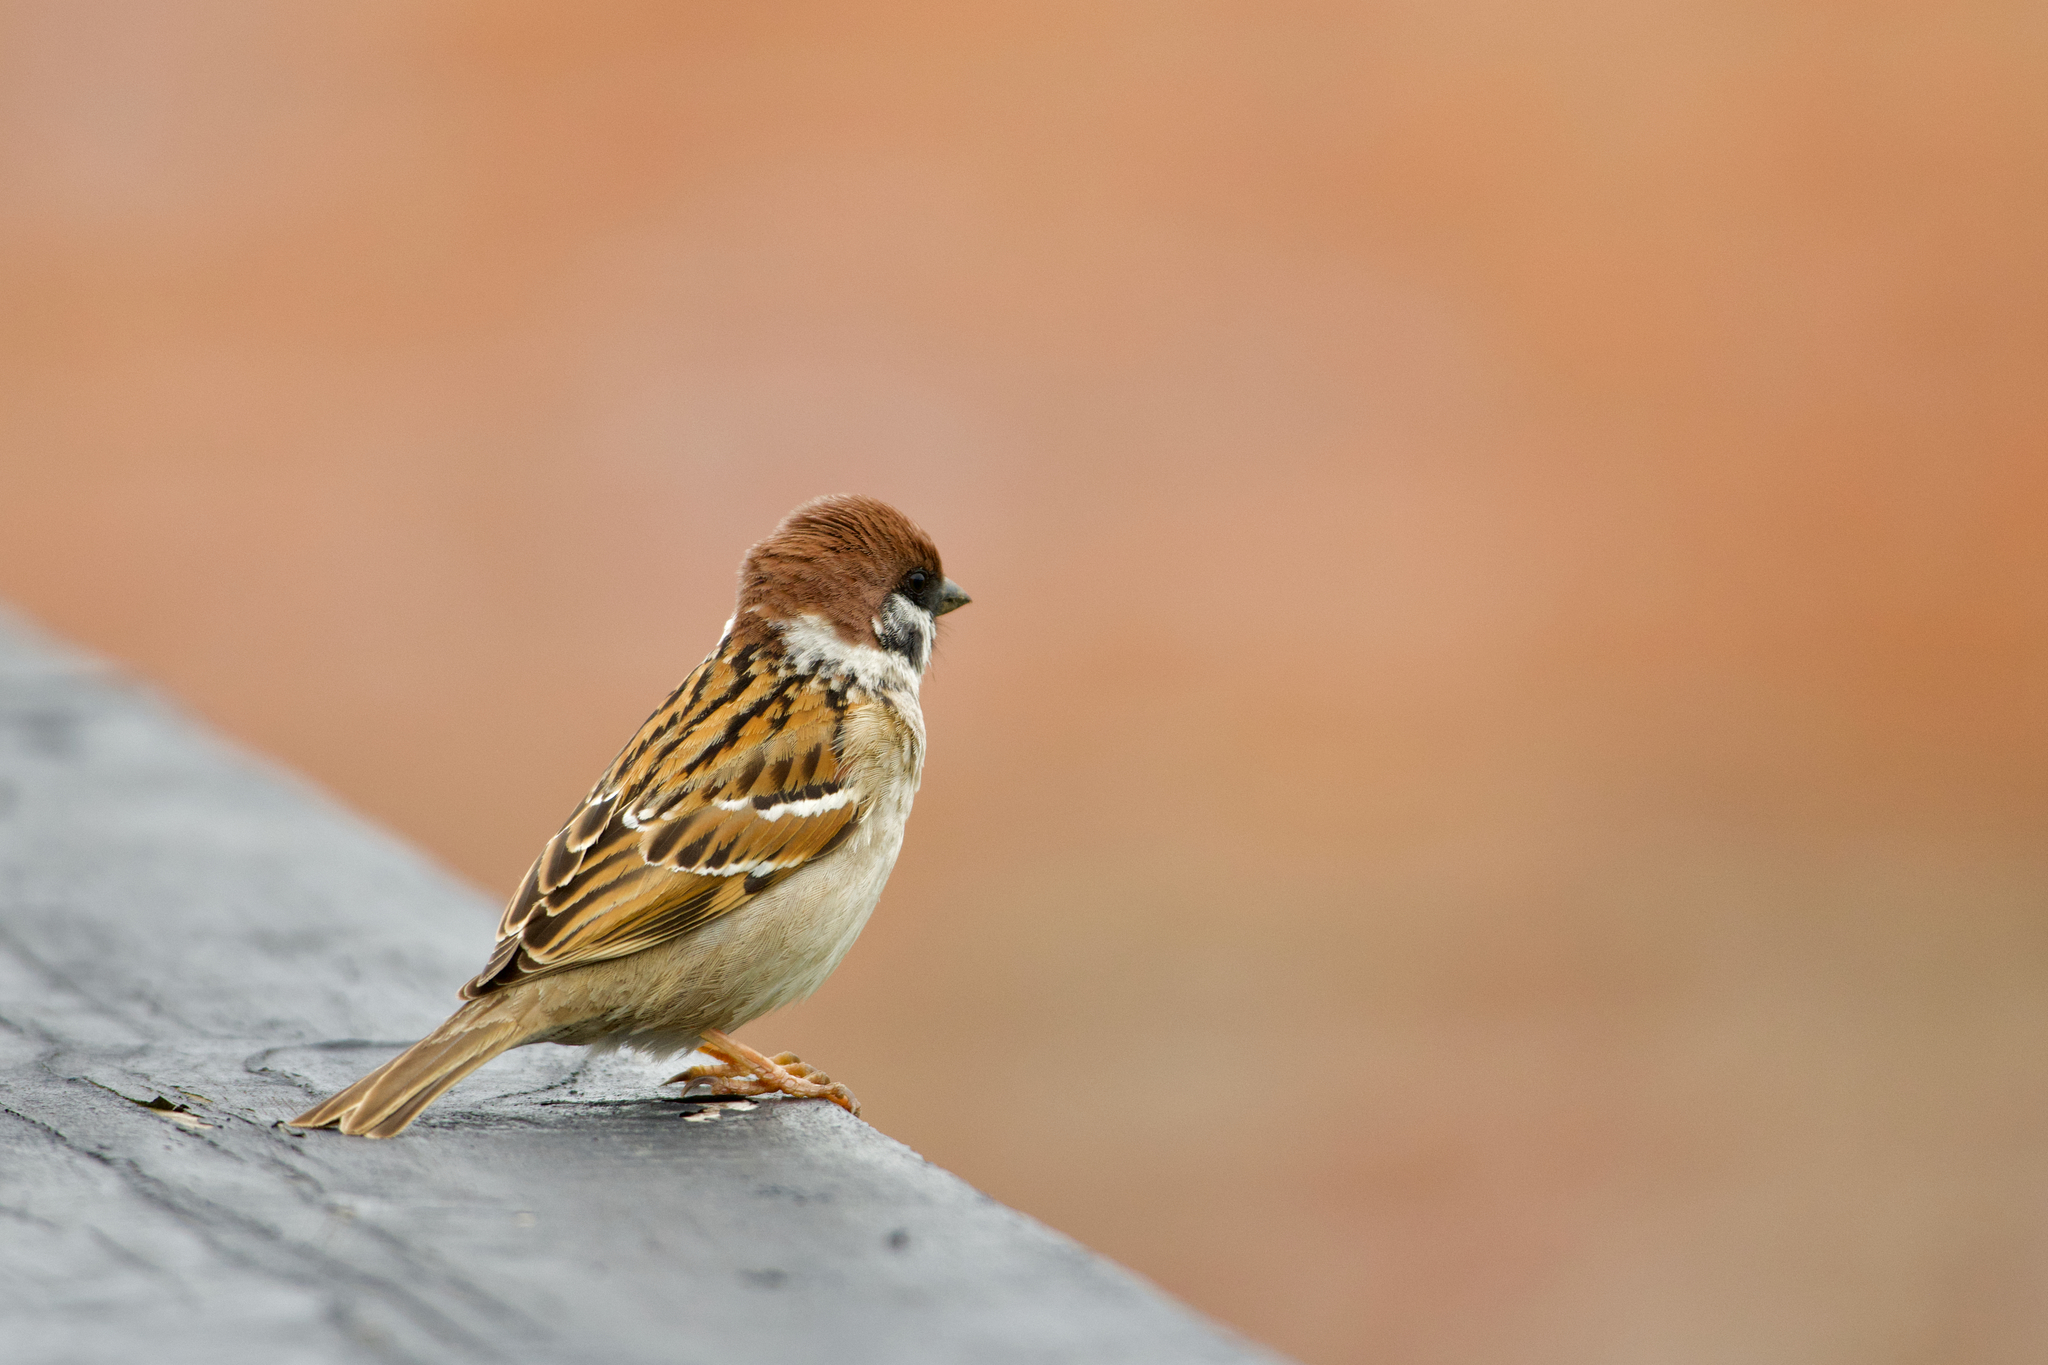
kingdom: Animalia
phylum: Chordata
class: Aves
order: Passeriformes
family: Passeridae
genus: Passer
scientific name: Passer montanus
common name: Eurasian tree sparrow
